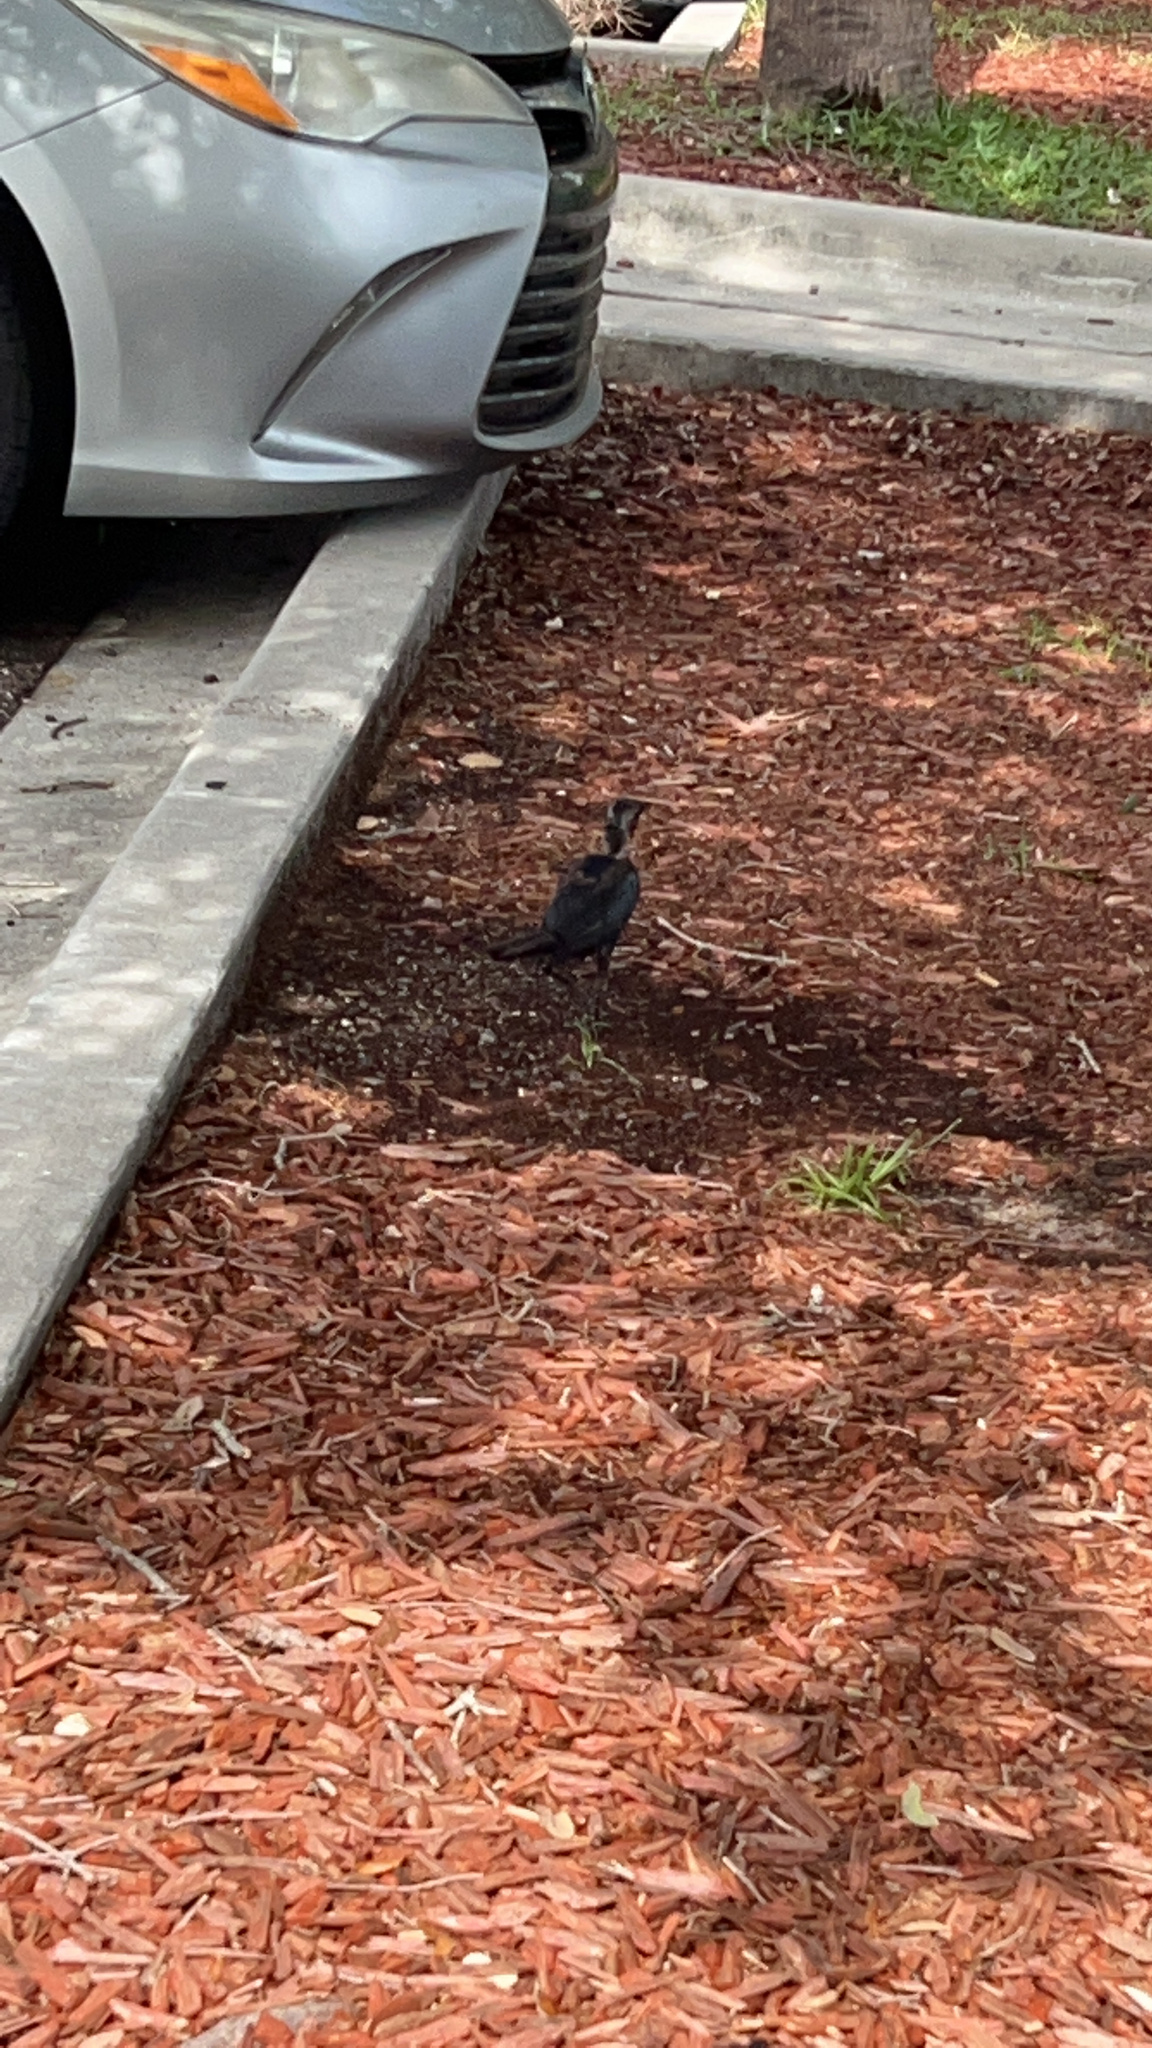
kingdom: Animalia
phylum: Chordata
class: Aves
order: Passeriformes
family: Icteridae
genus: Quiscalus
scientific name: Quiscalus major
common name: Boat-tailed grackle
